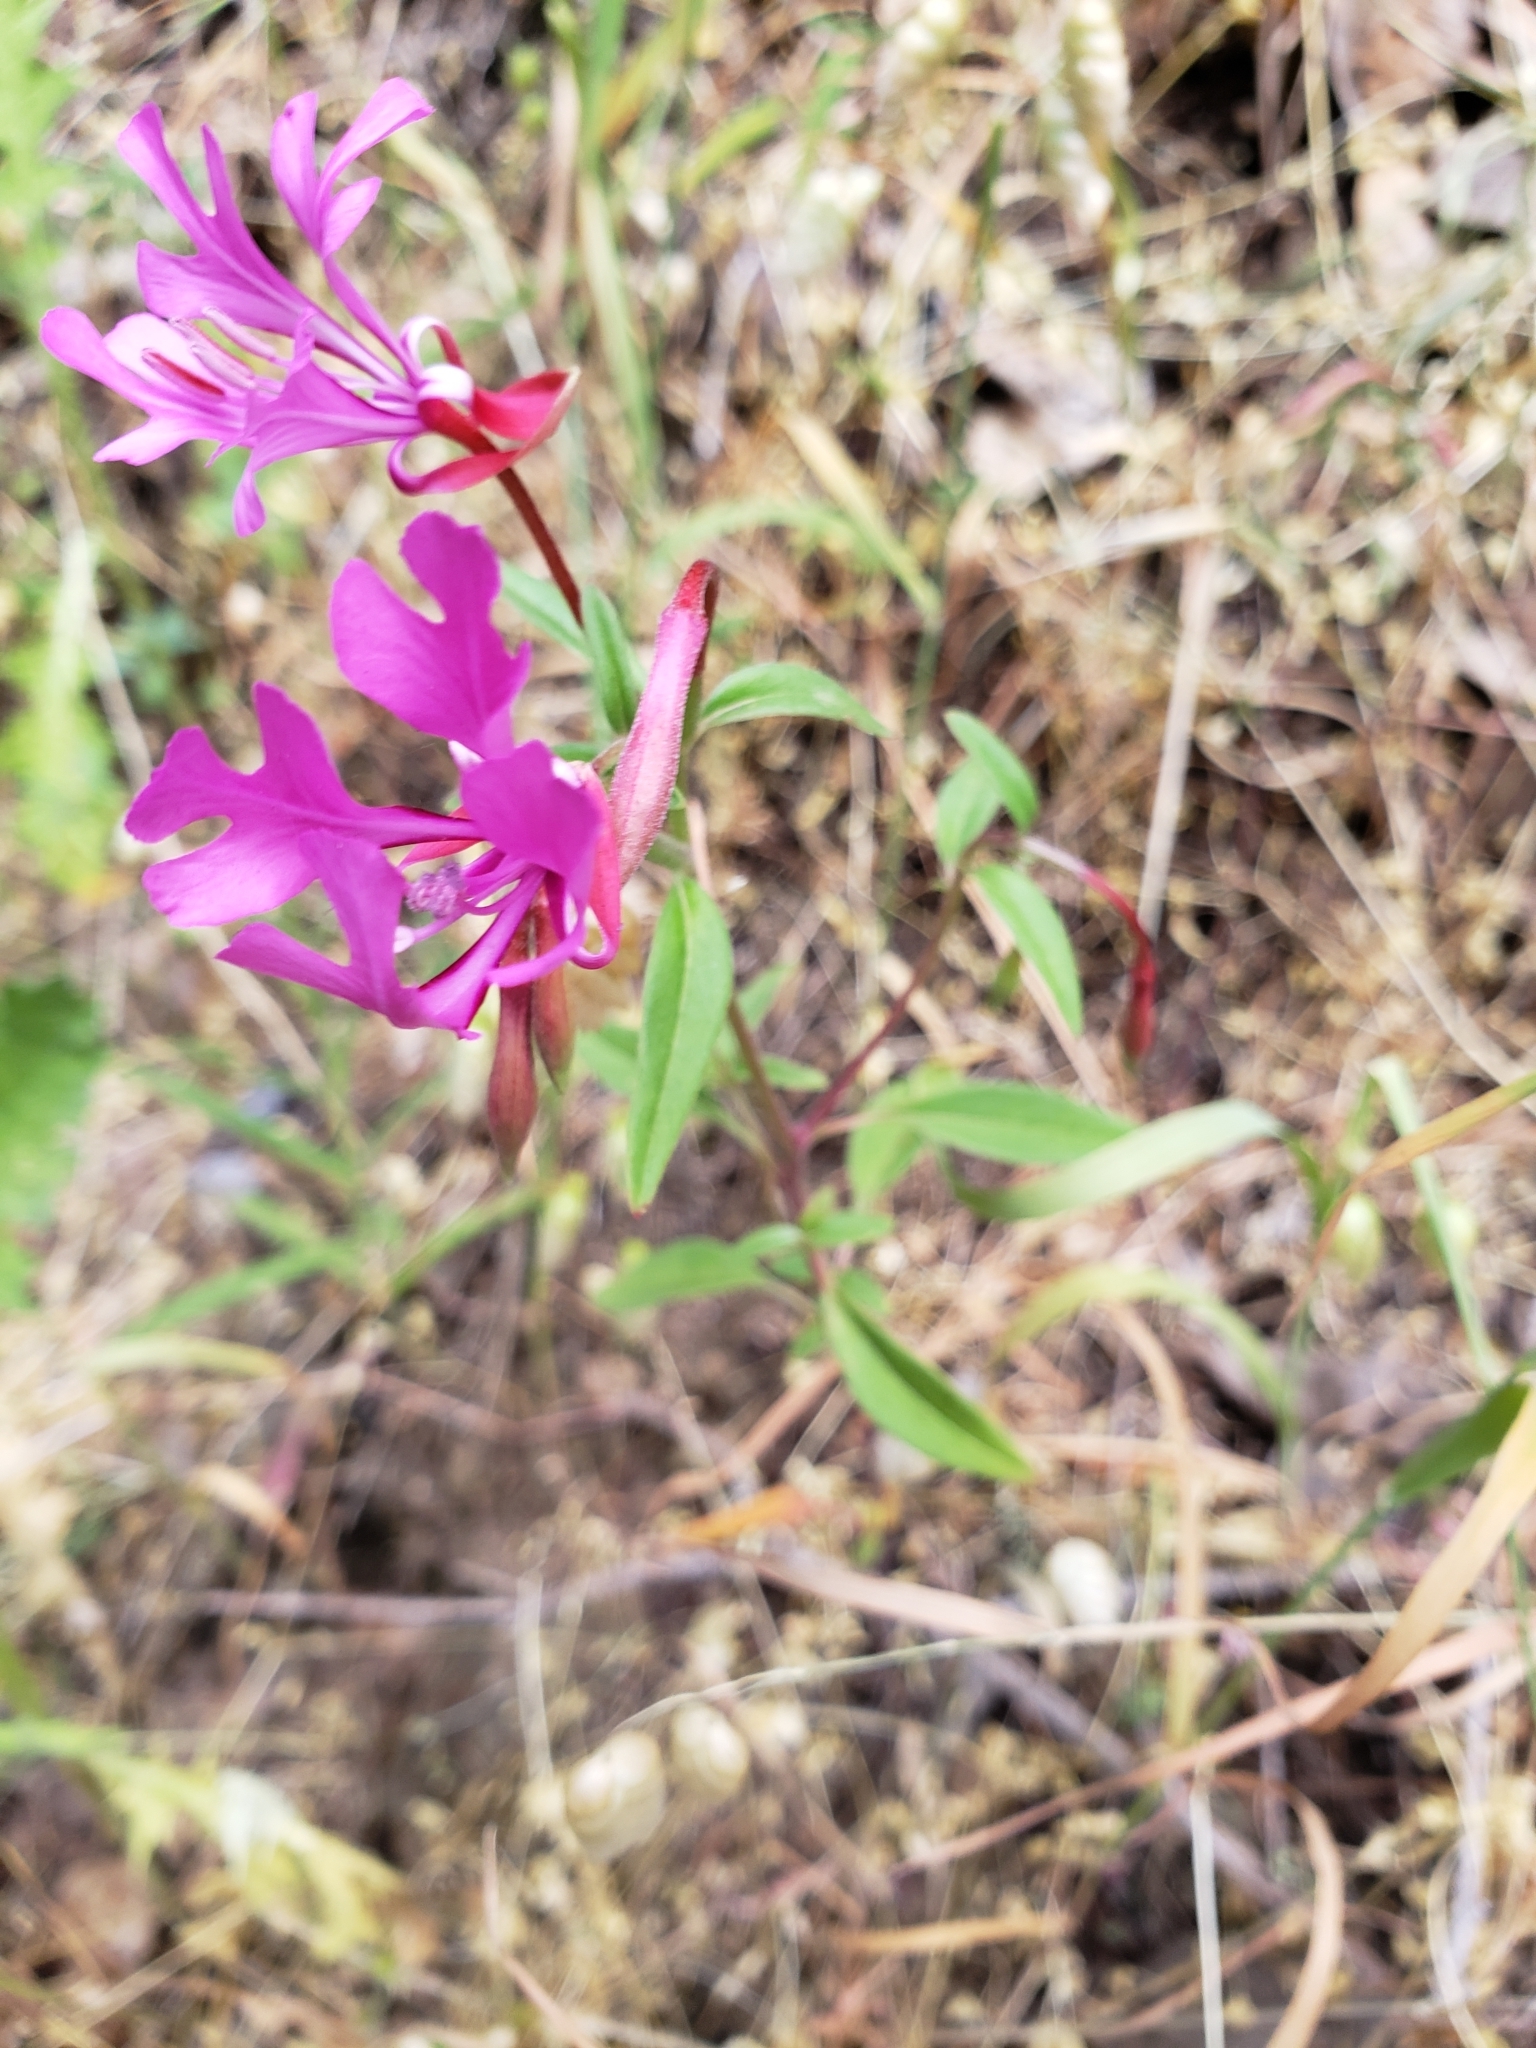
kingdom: Plantae
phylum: Tracheophyta
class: Magnoliopsida
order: Myrtales
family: Onagraceae
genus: Clarkia
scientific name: Clarkia concinna
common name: Red-ribbons
